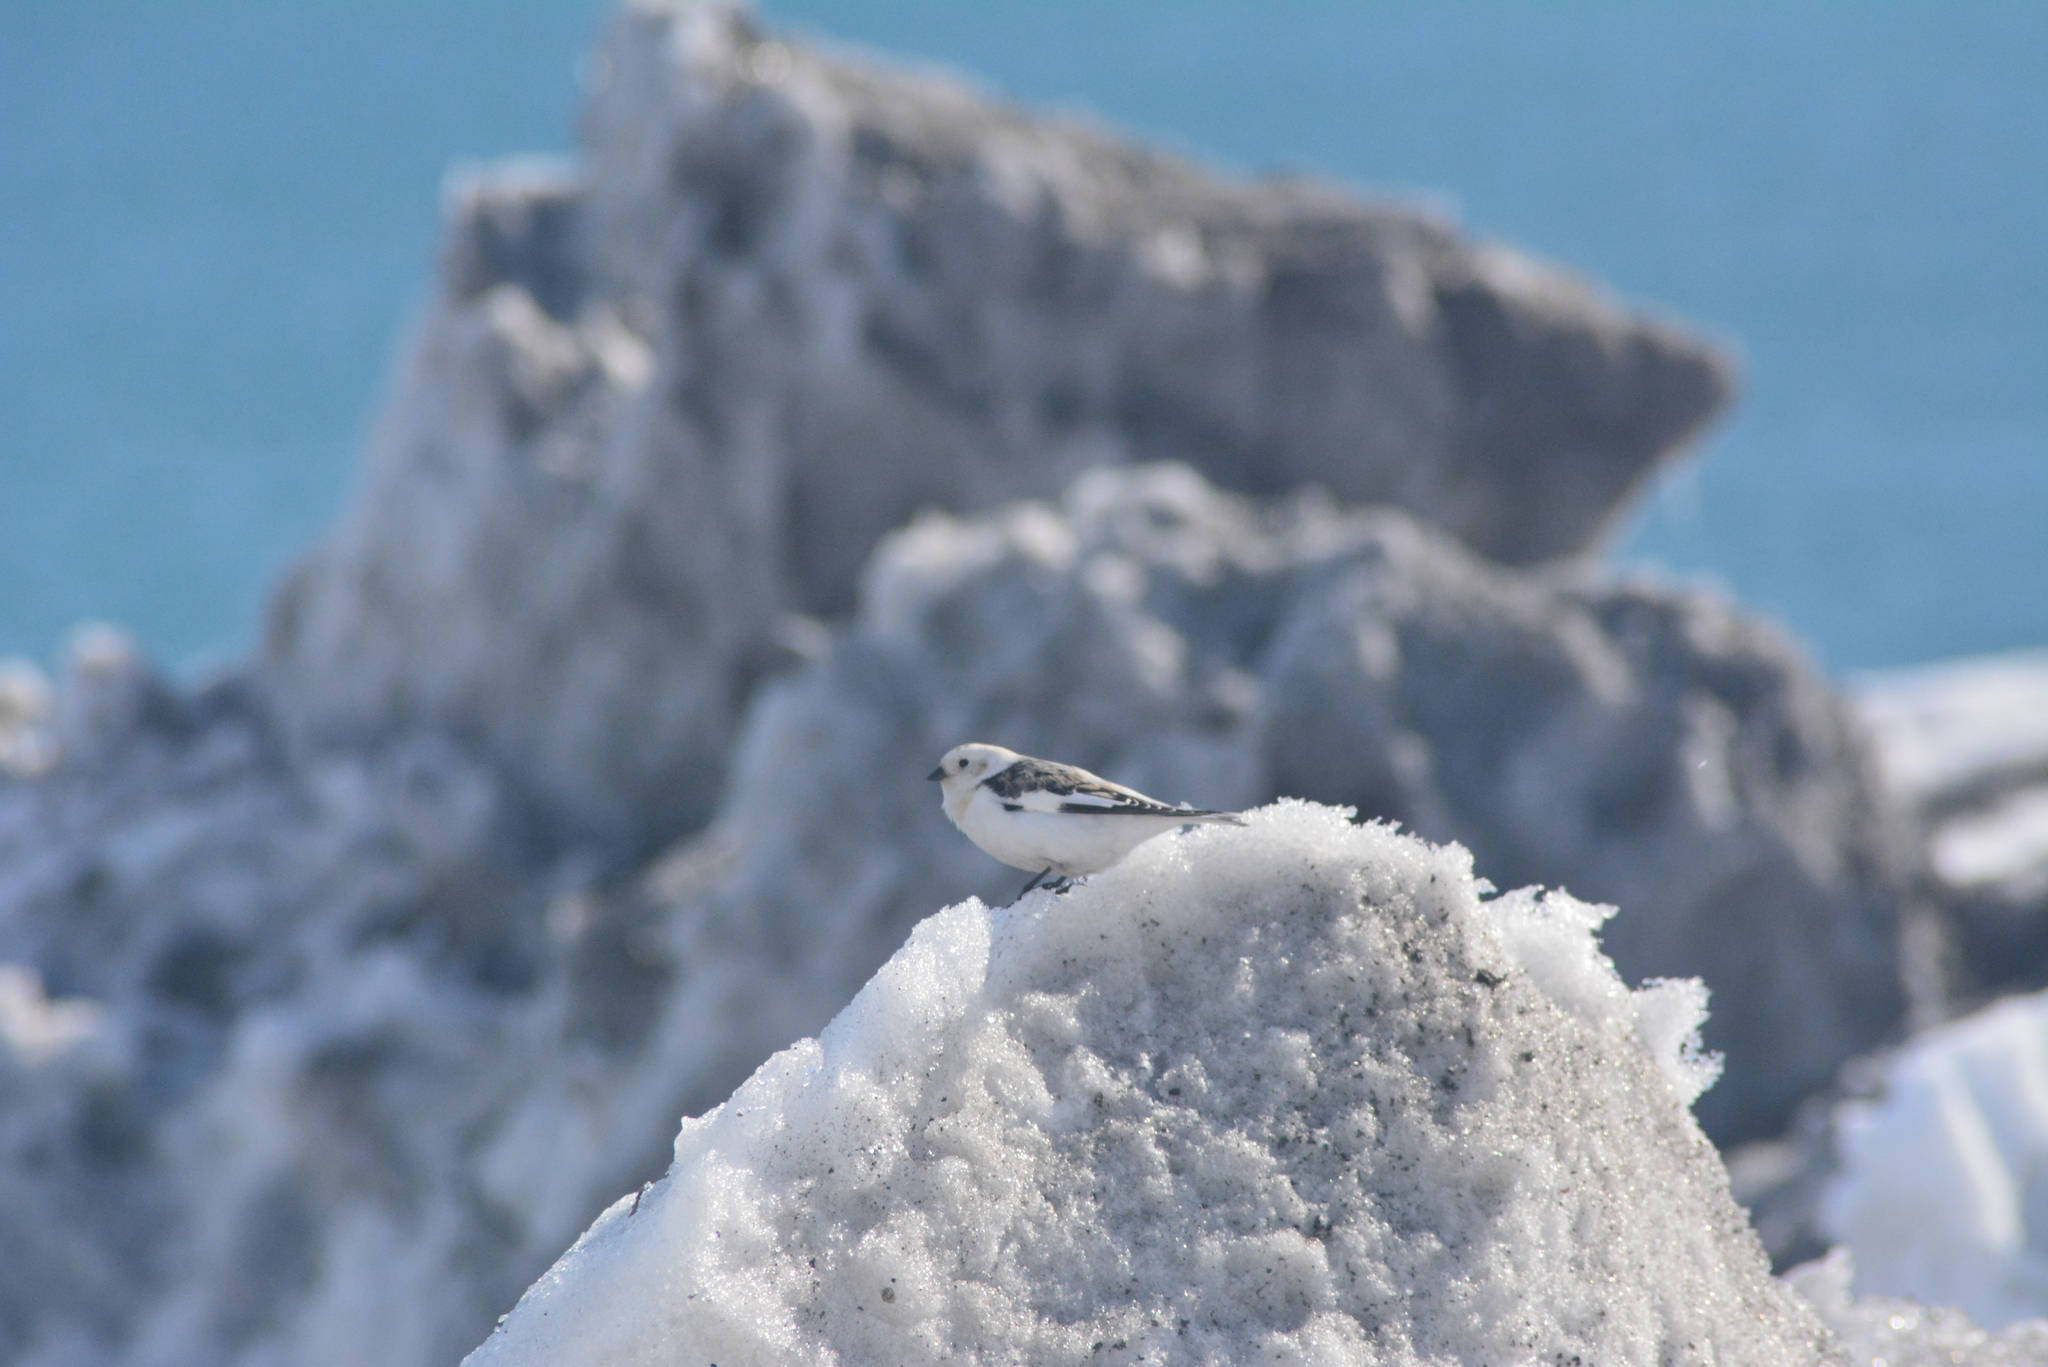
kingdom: Animalia
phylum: Chordata
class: Aves
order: Passeriformes
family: Calcariidae
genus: Plectrophenax
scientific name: Plectrophenax nivalis
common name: Snow bunting
